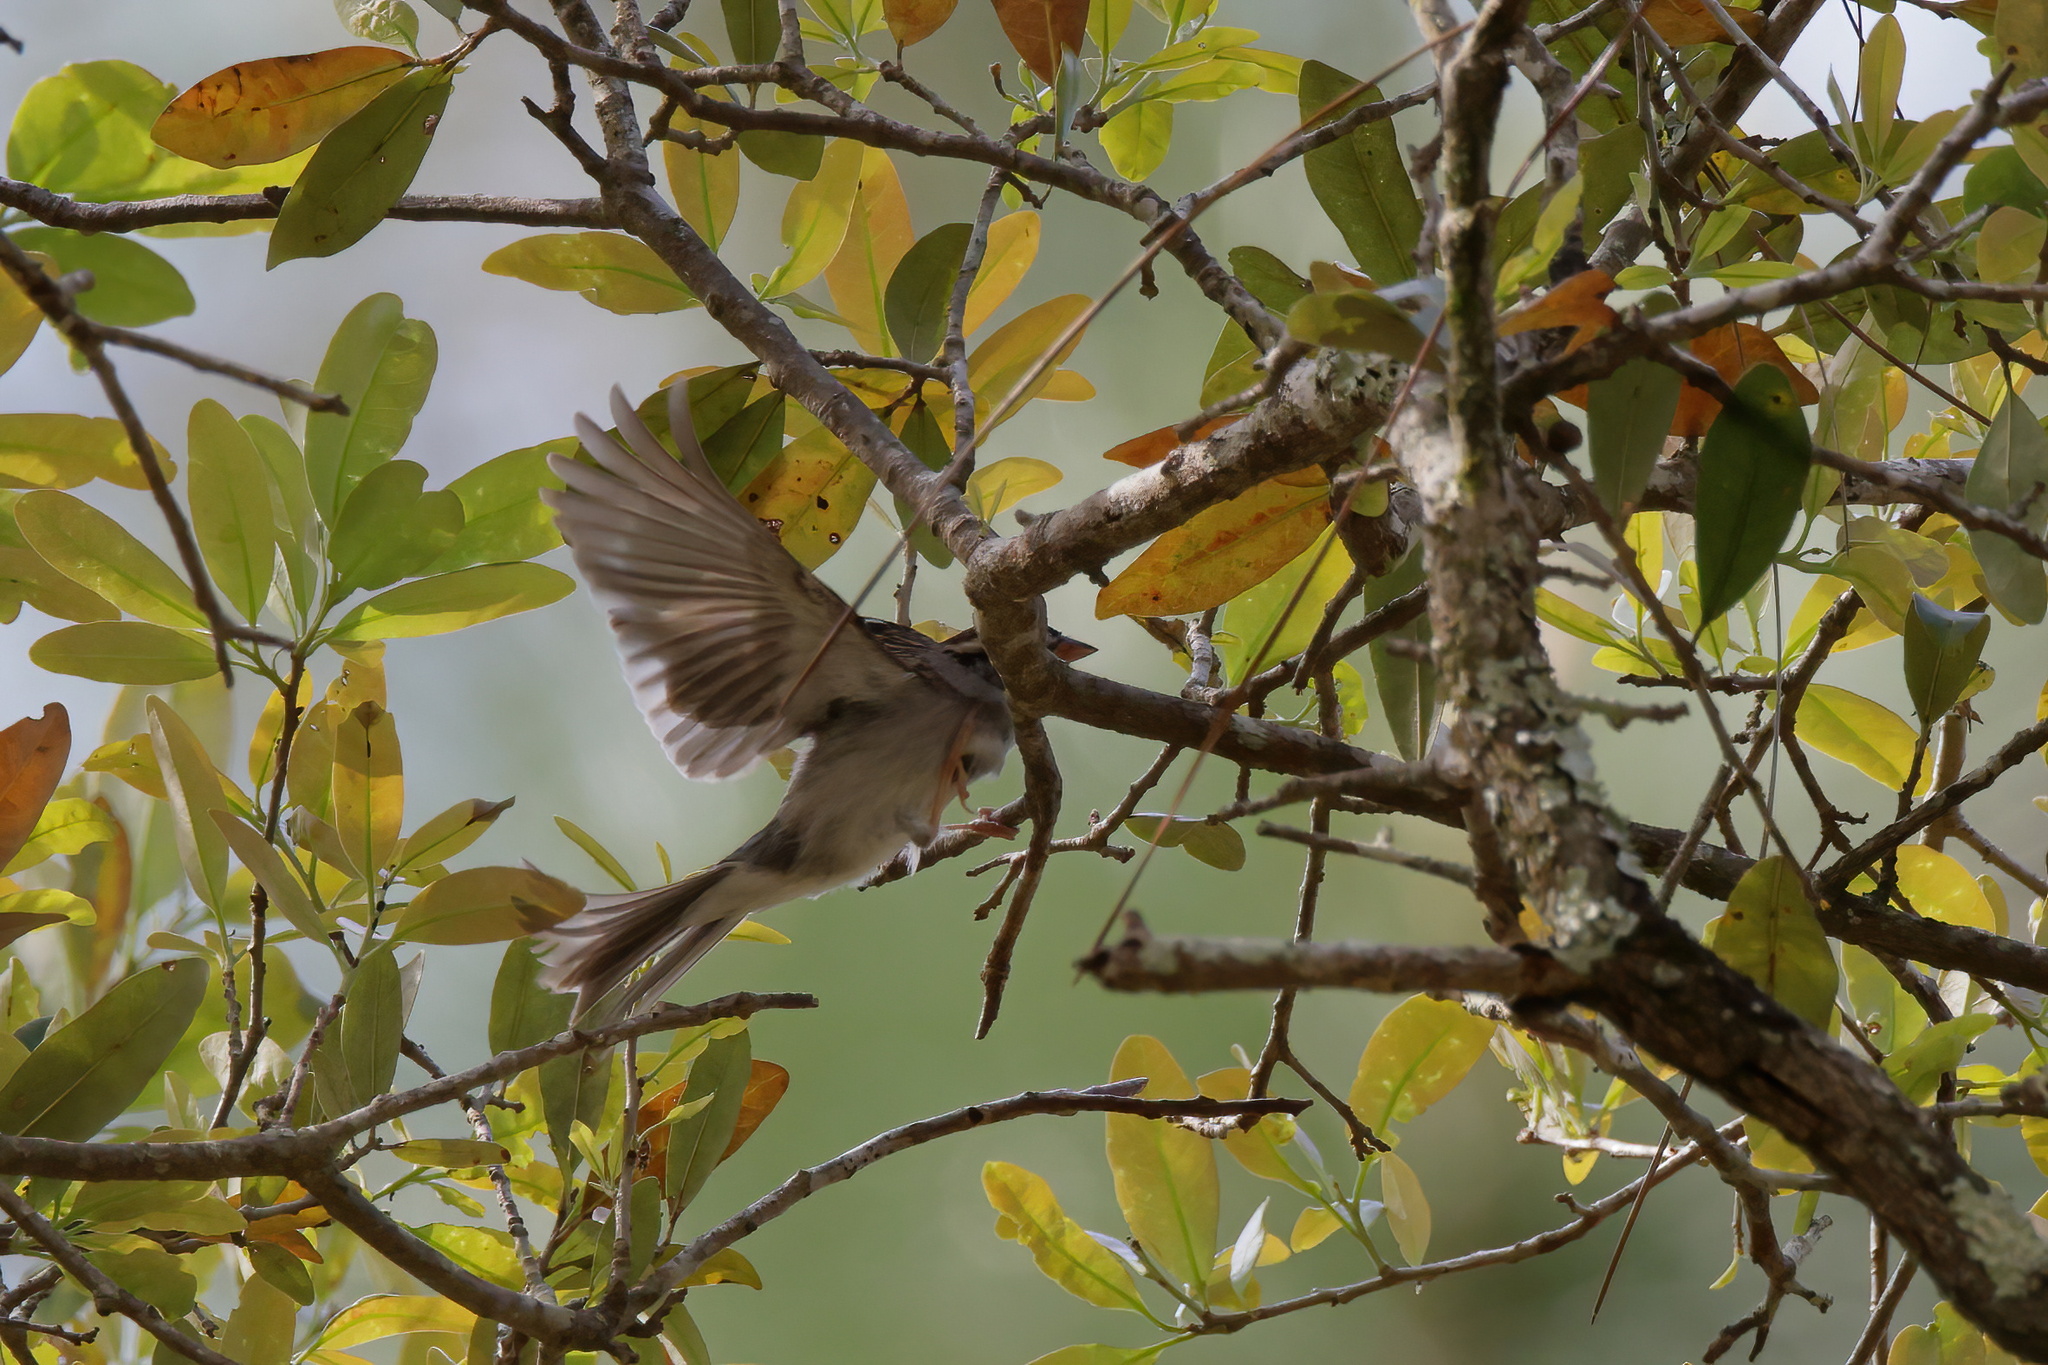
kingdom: Animalia
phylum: Chordata
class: Aves
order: Passeriformes
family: Passerellidae
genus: Spizella
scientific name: Spizella passerina
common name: Chipping sparrow
